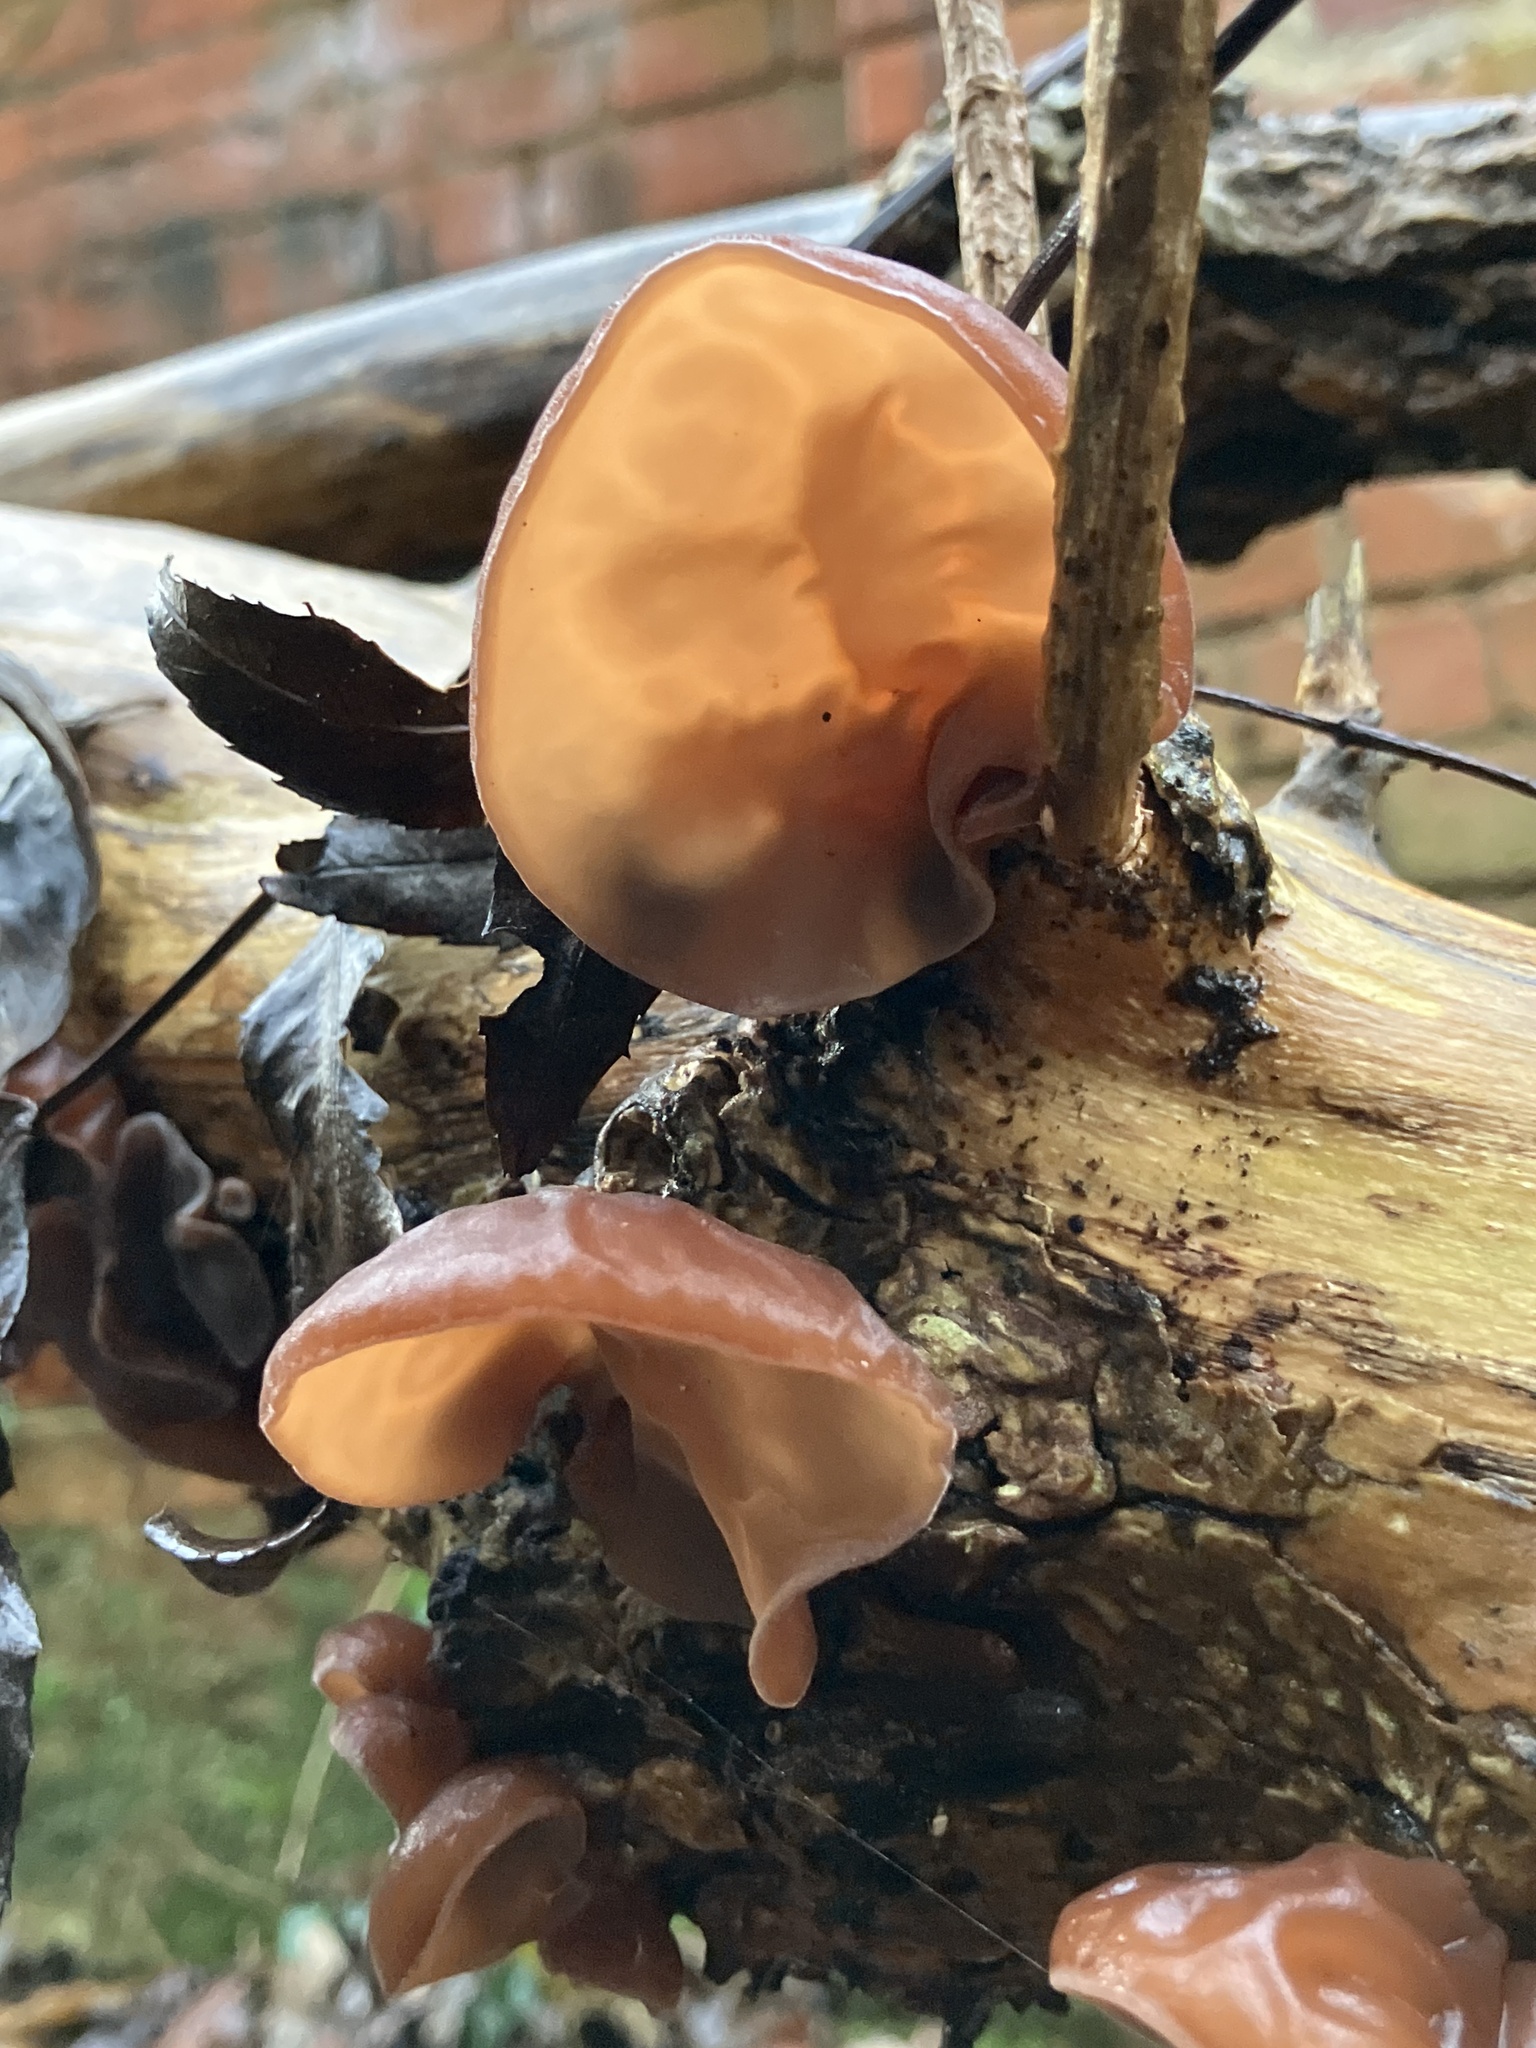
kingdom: Fungi
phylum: Basidiomycota
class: Agaricomycetes
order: Auriculariales
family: Auriculariaceae
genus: Auricularia
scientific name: Auricularia auricula-judae
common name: Jelly ear
